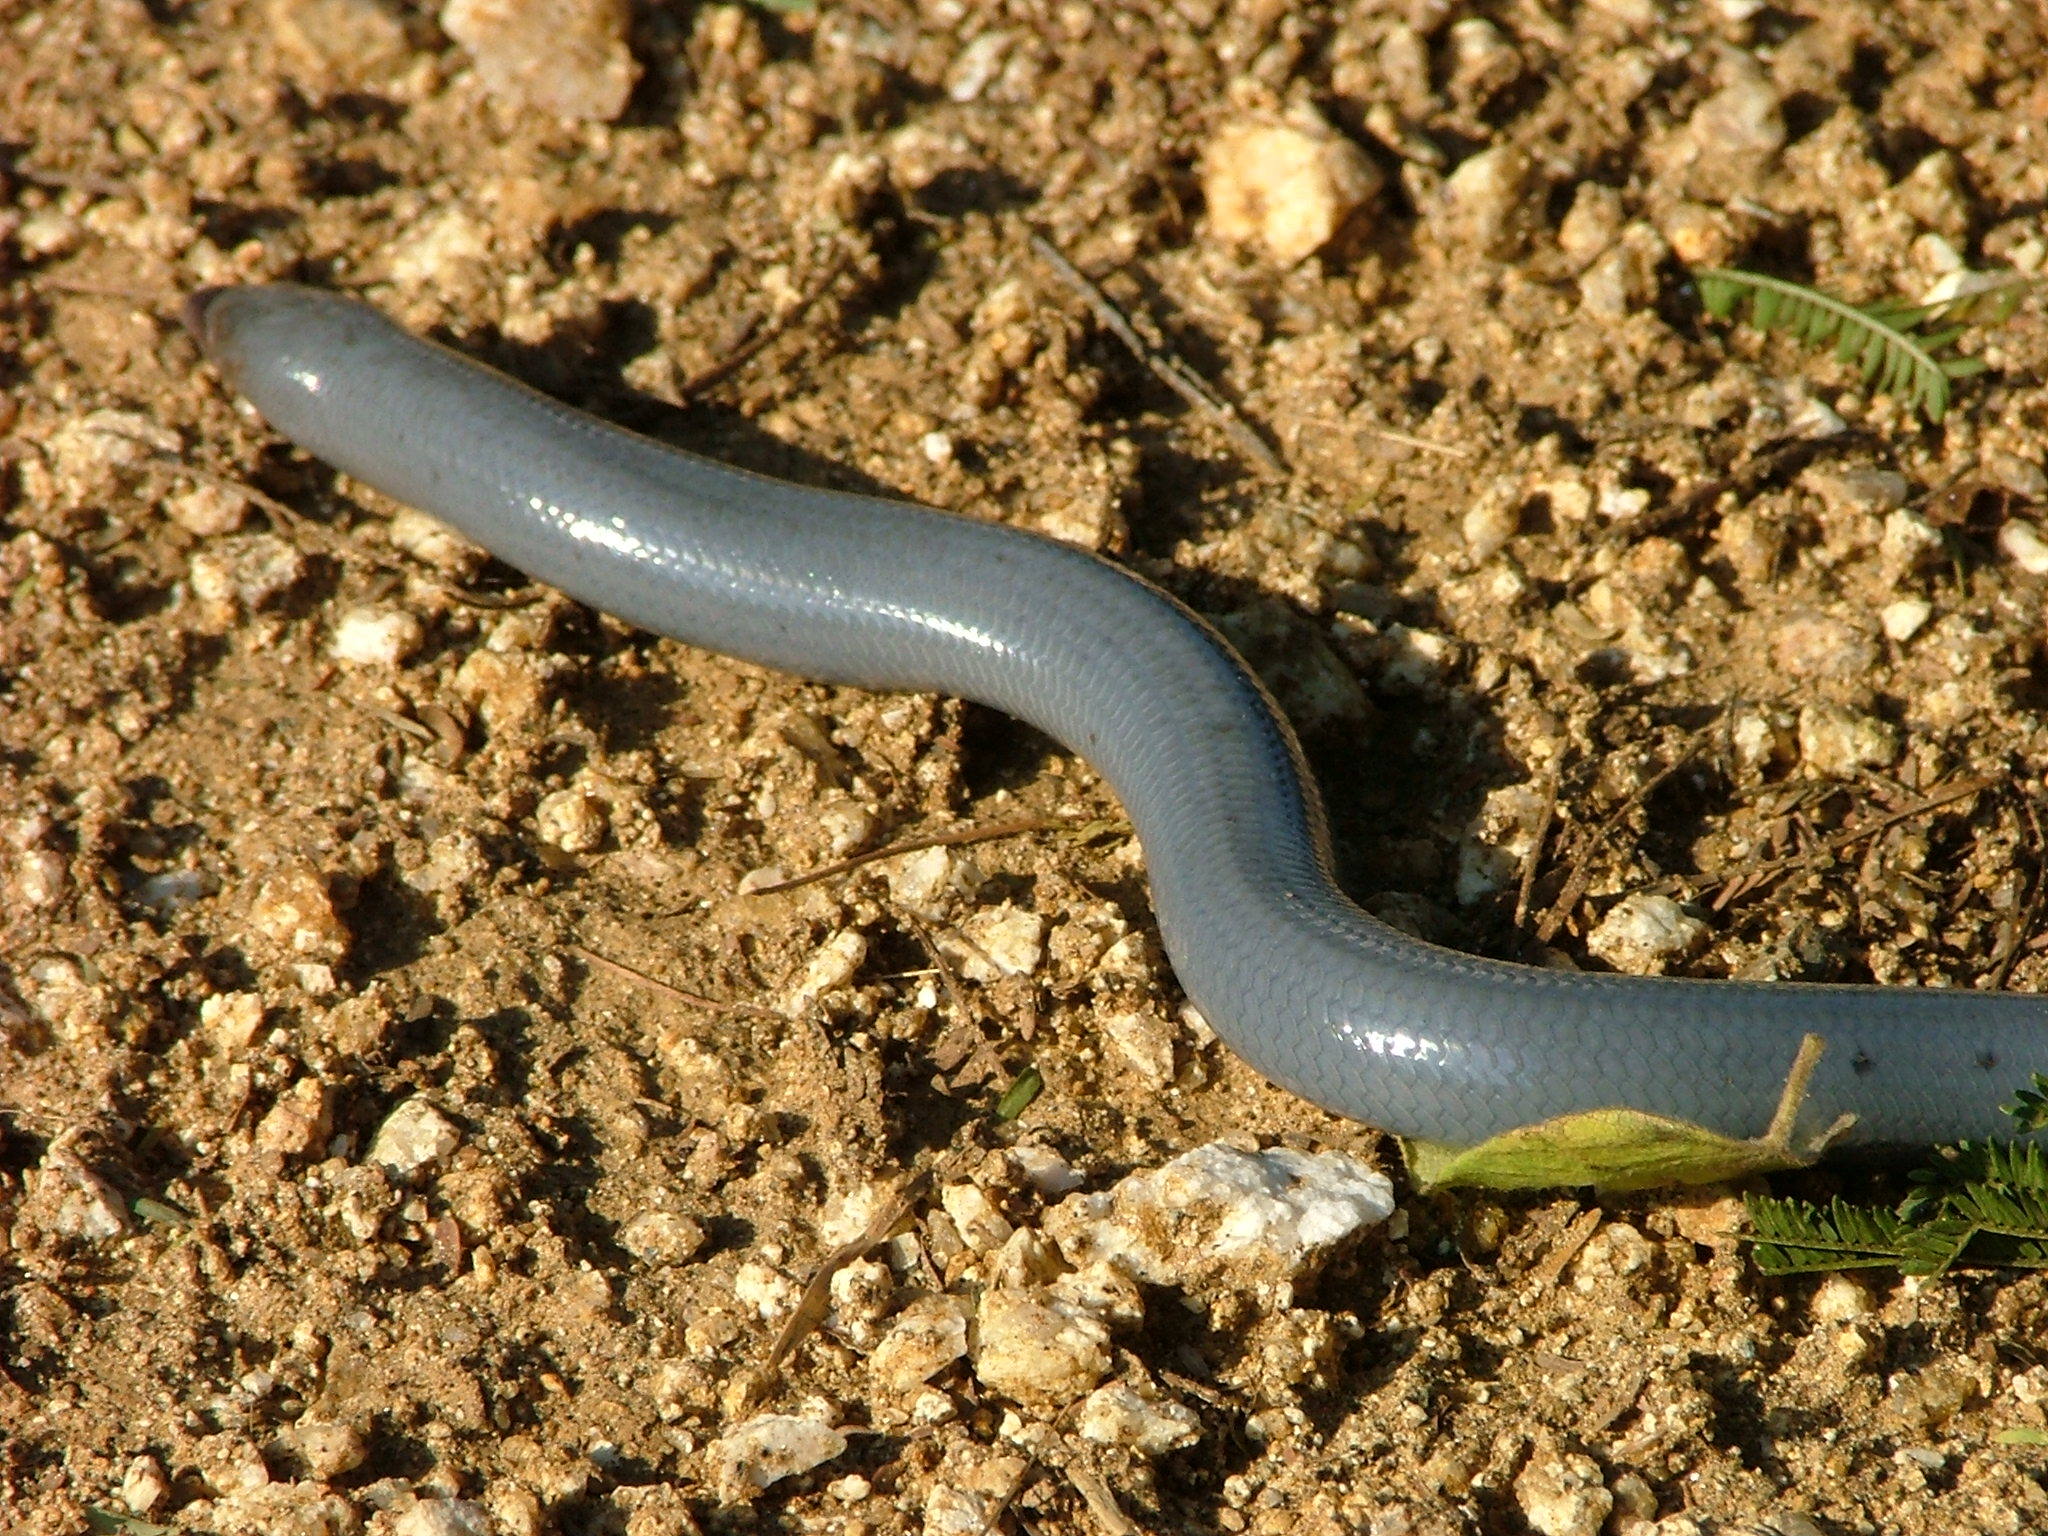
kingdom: Animalia
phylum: Chordata
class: Squamata
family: Scincidae
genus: Acontias
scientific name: Acontias plumbeus
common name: Giant lance skink
